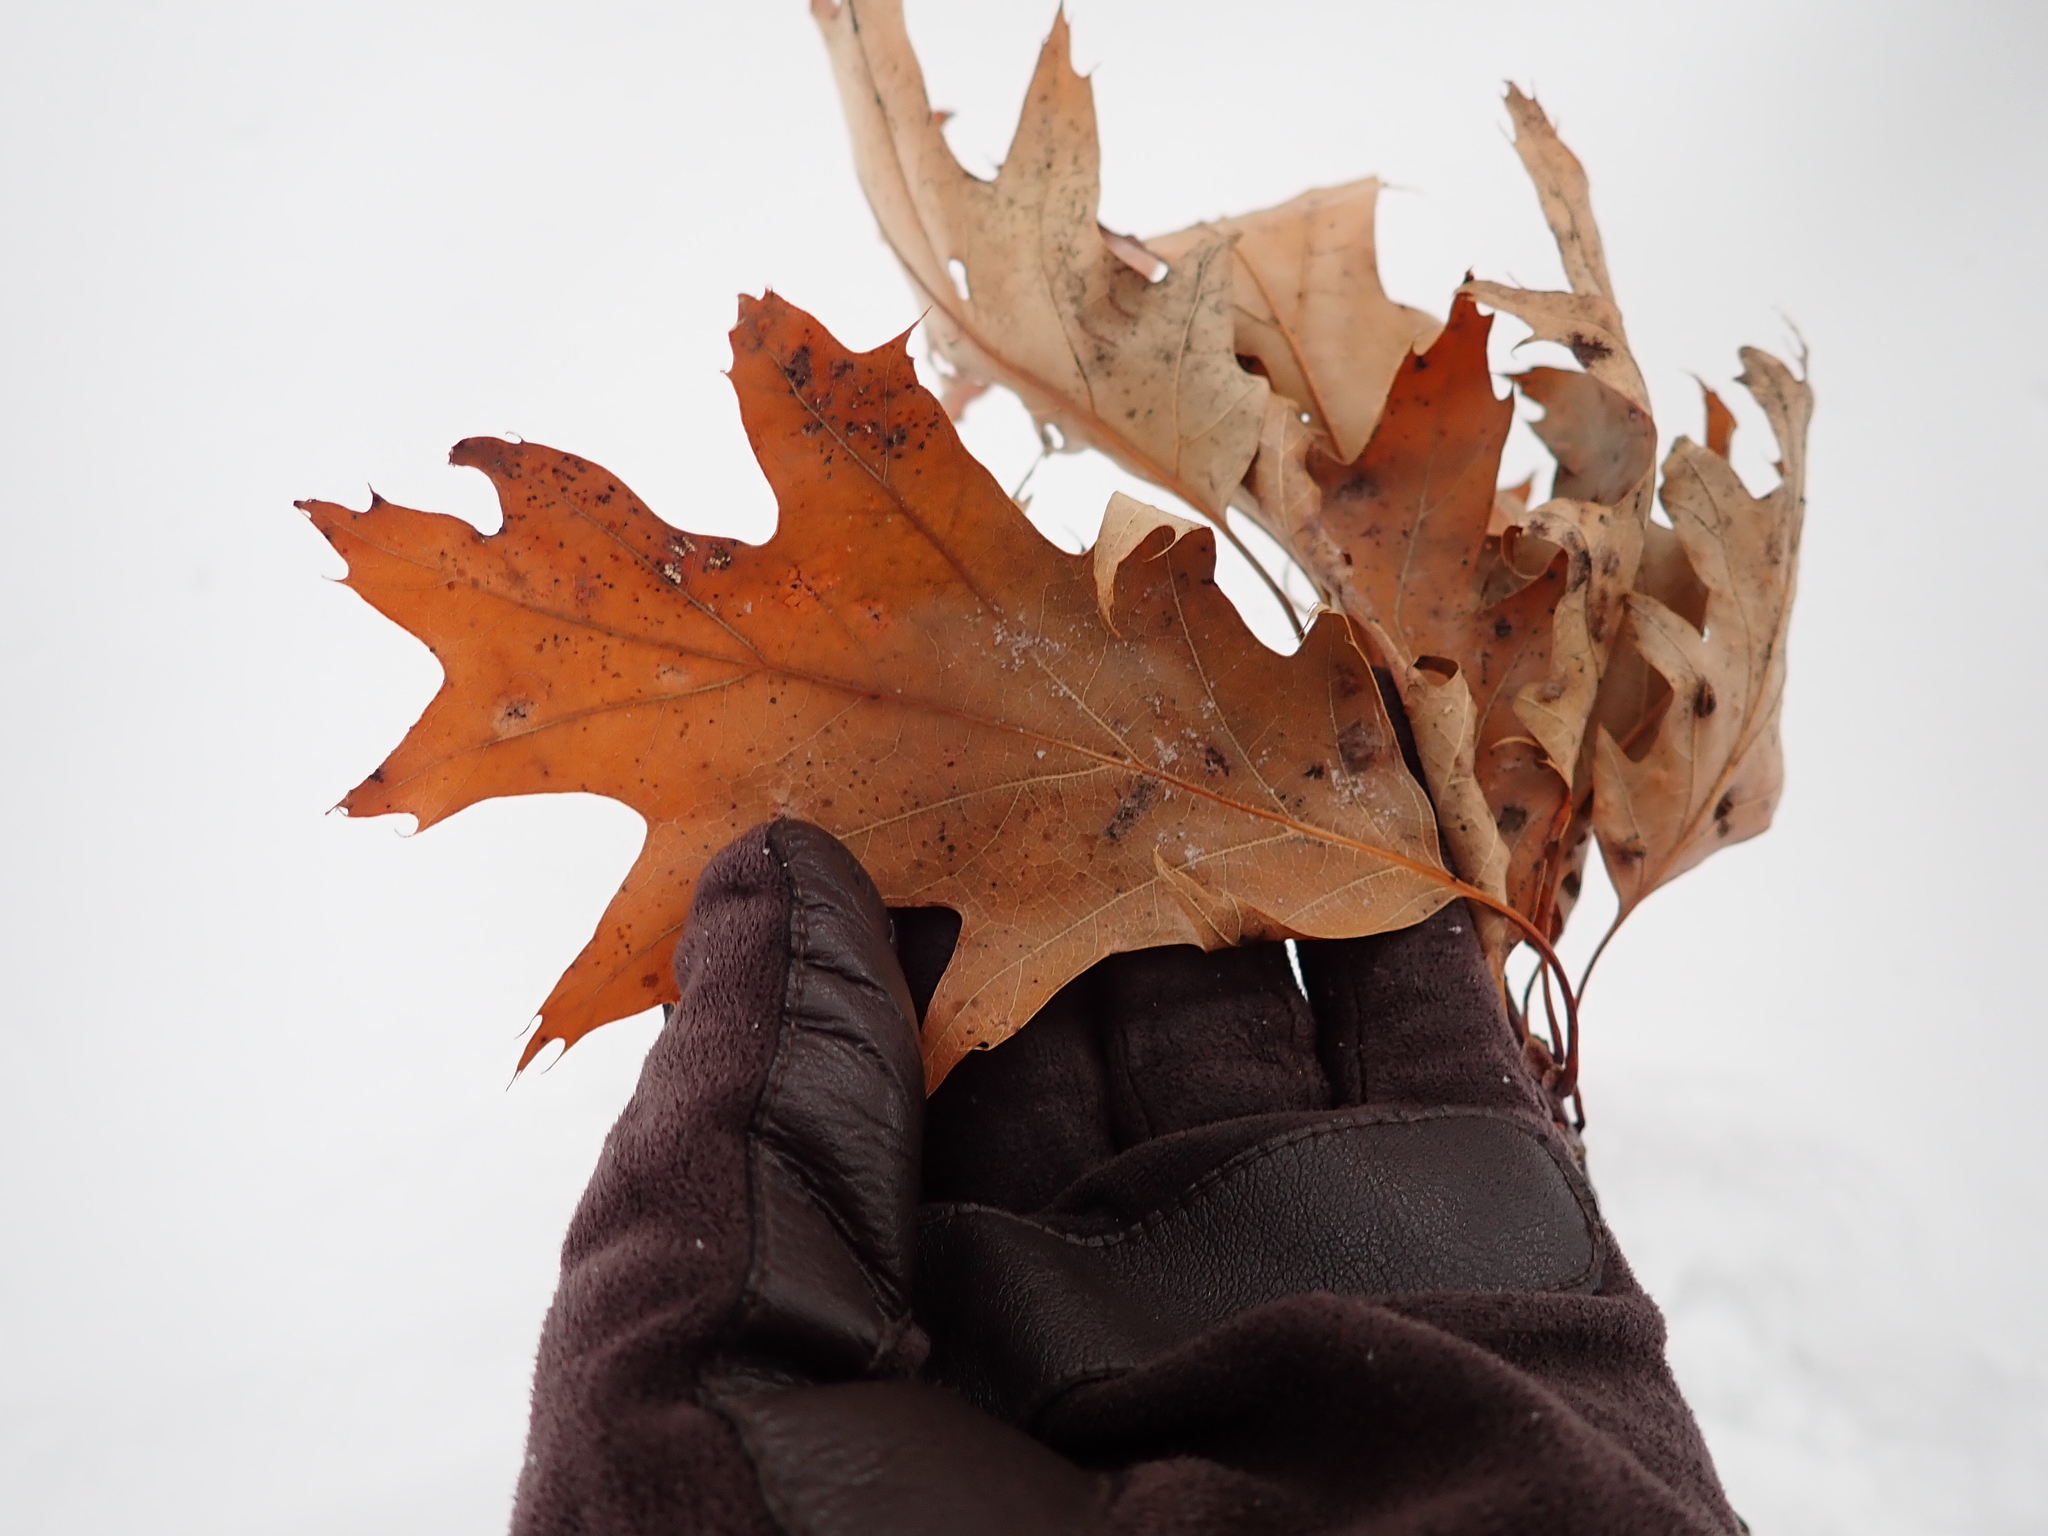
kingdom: Plantae
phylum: Tracheophyta
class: Magnoliopsida
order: Fagales
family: Fagaceae
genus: Quercus
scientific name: Quercus rubra
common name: Red oak
